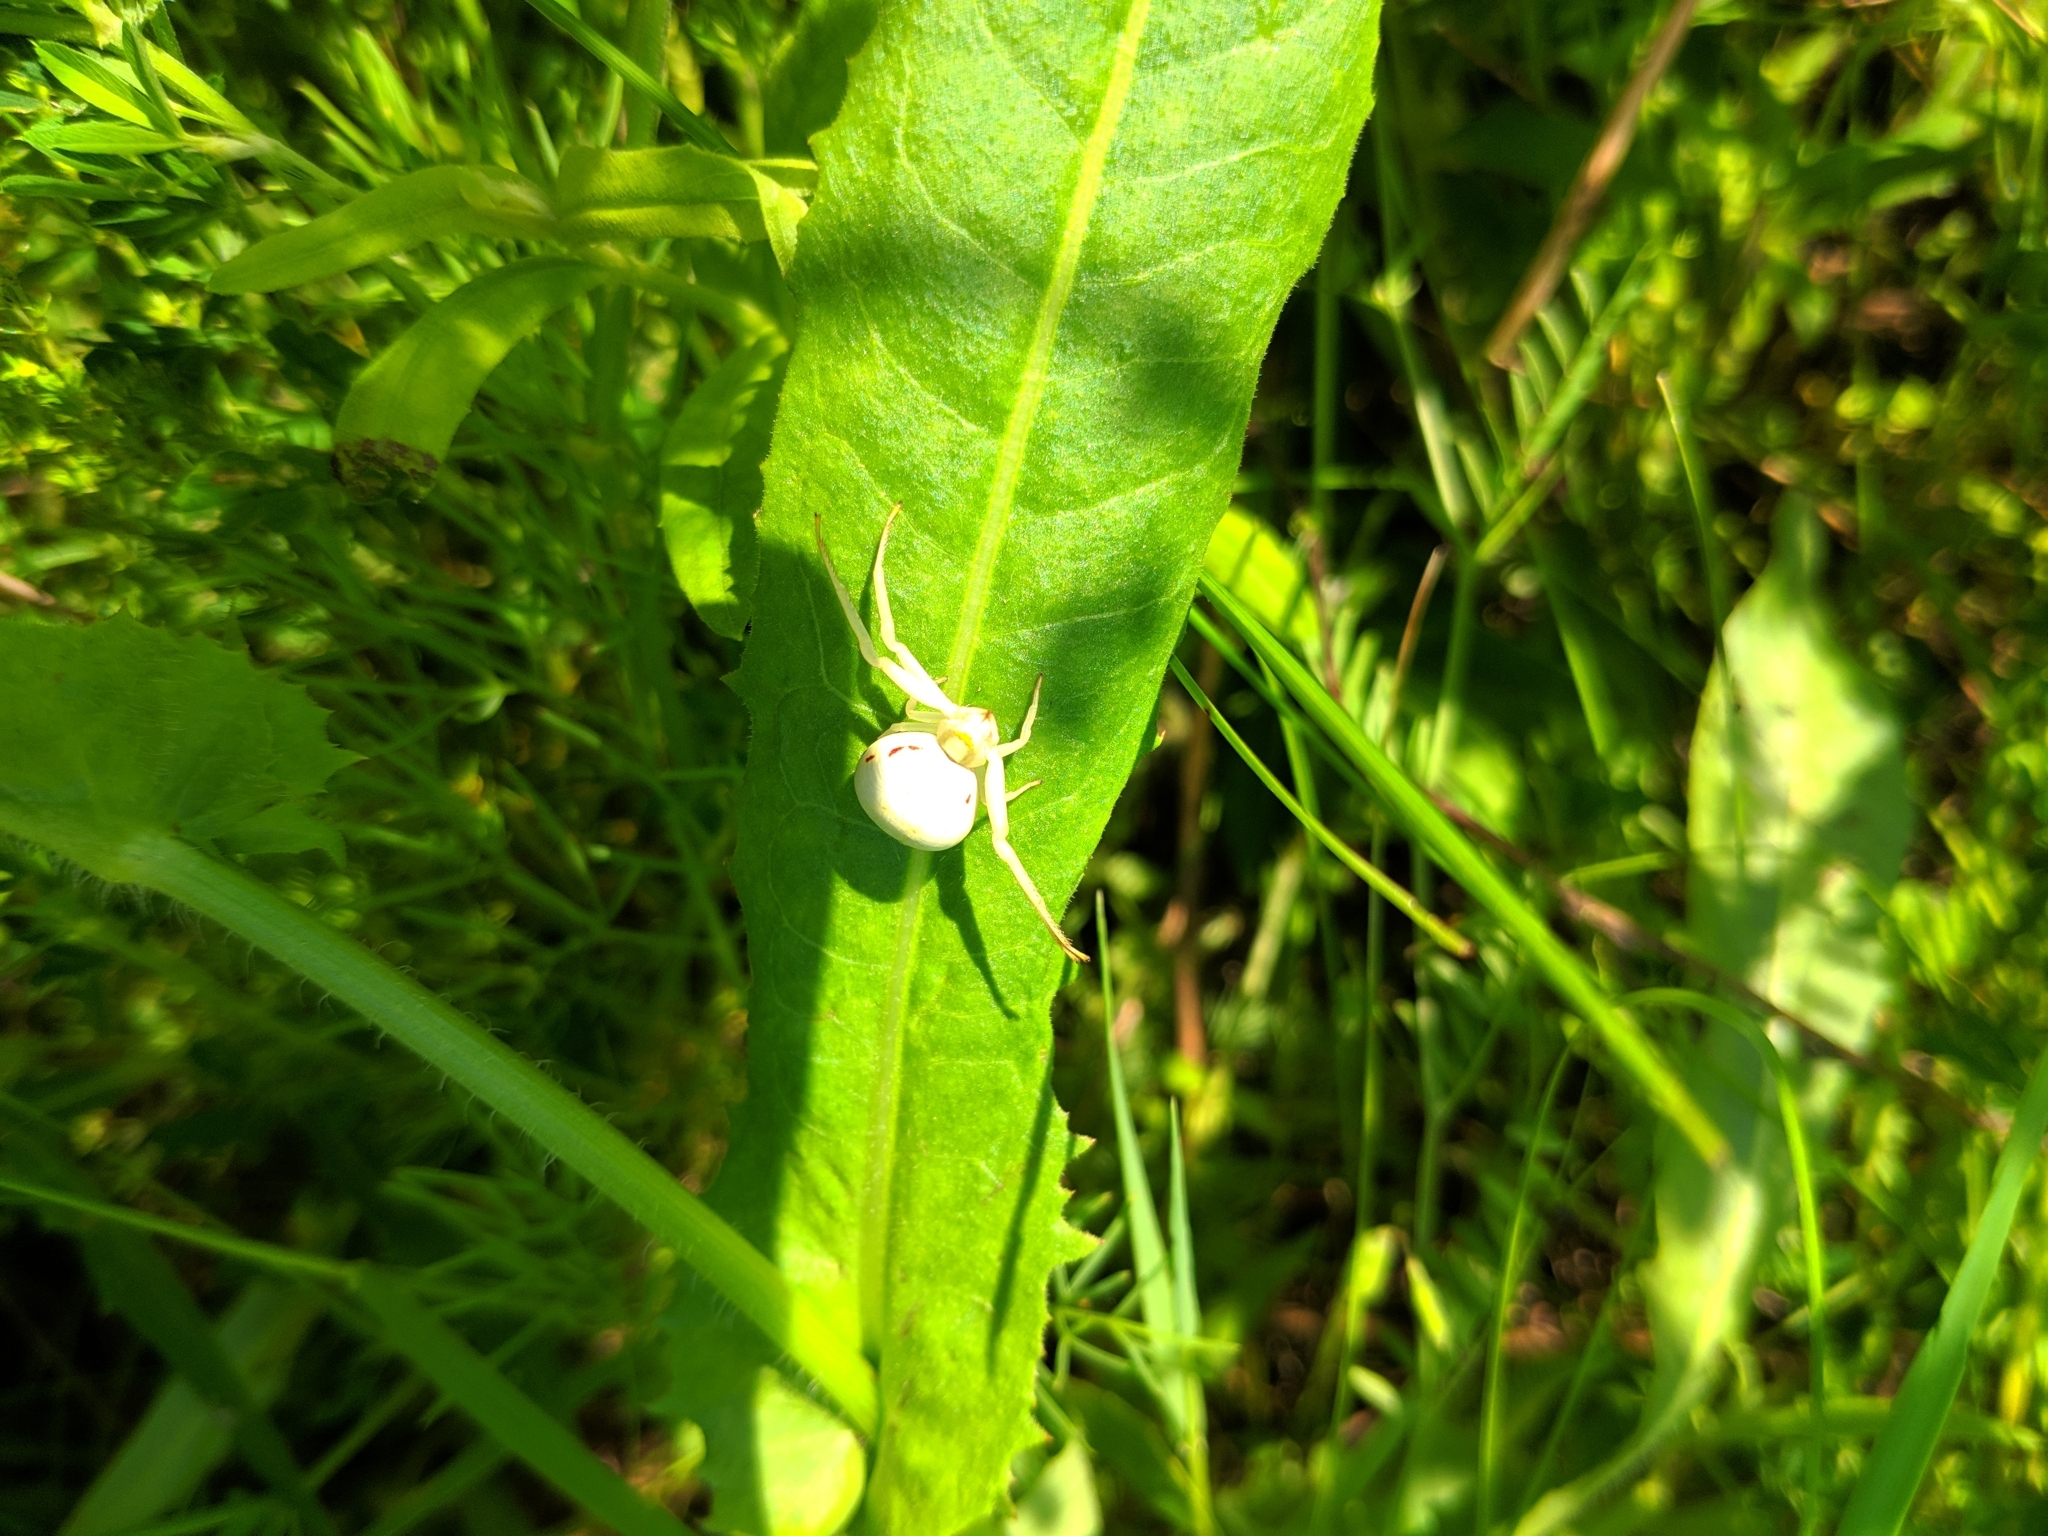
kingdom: Animalia
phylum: Arthropoda
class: Arachnida
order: Araneae
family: Thomisidae
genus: Misumena
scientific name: Misumena vatia
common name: Goldenrod crab spider
